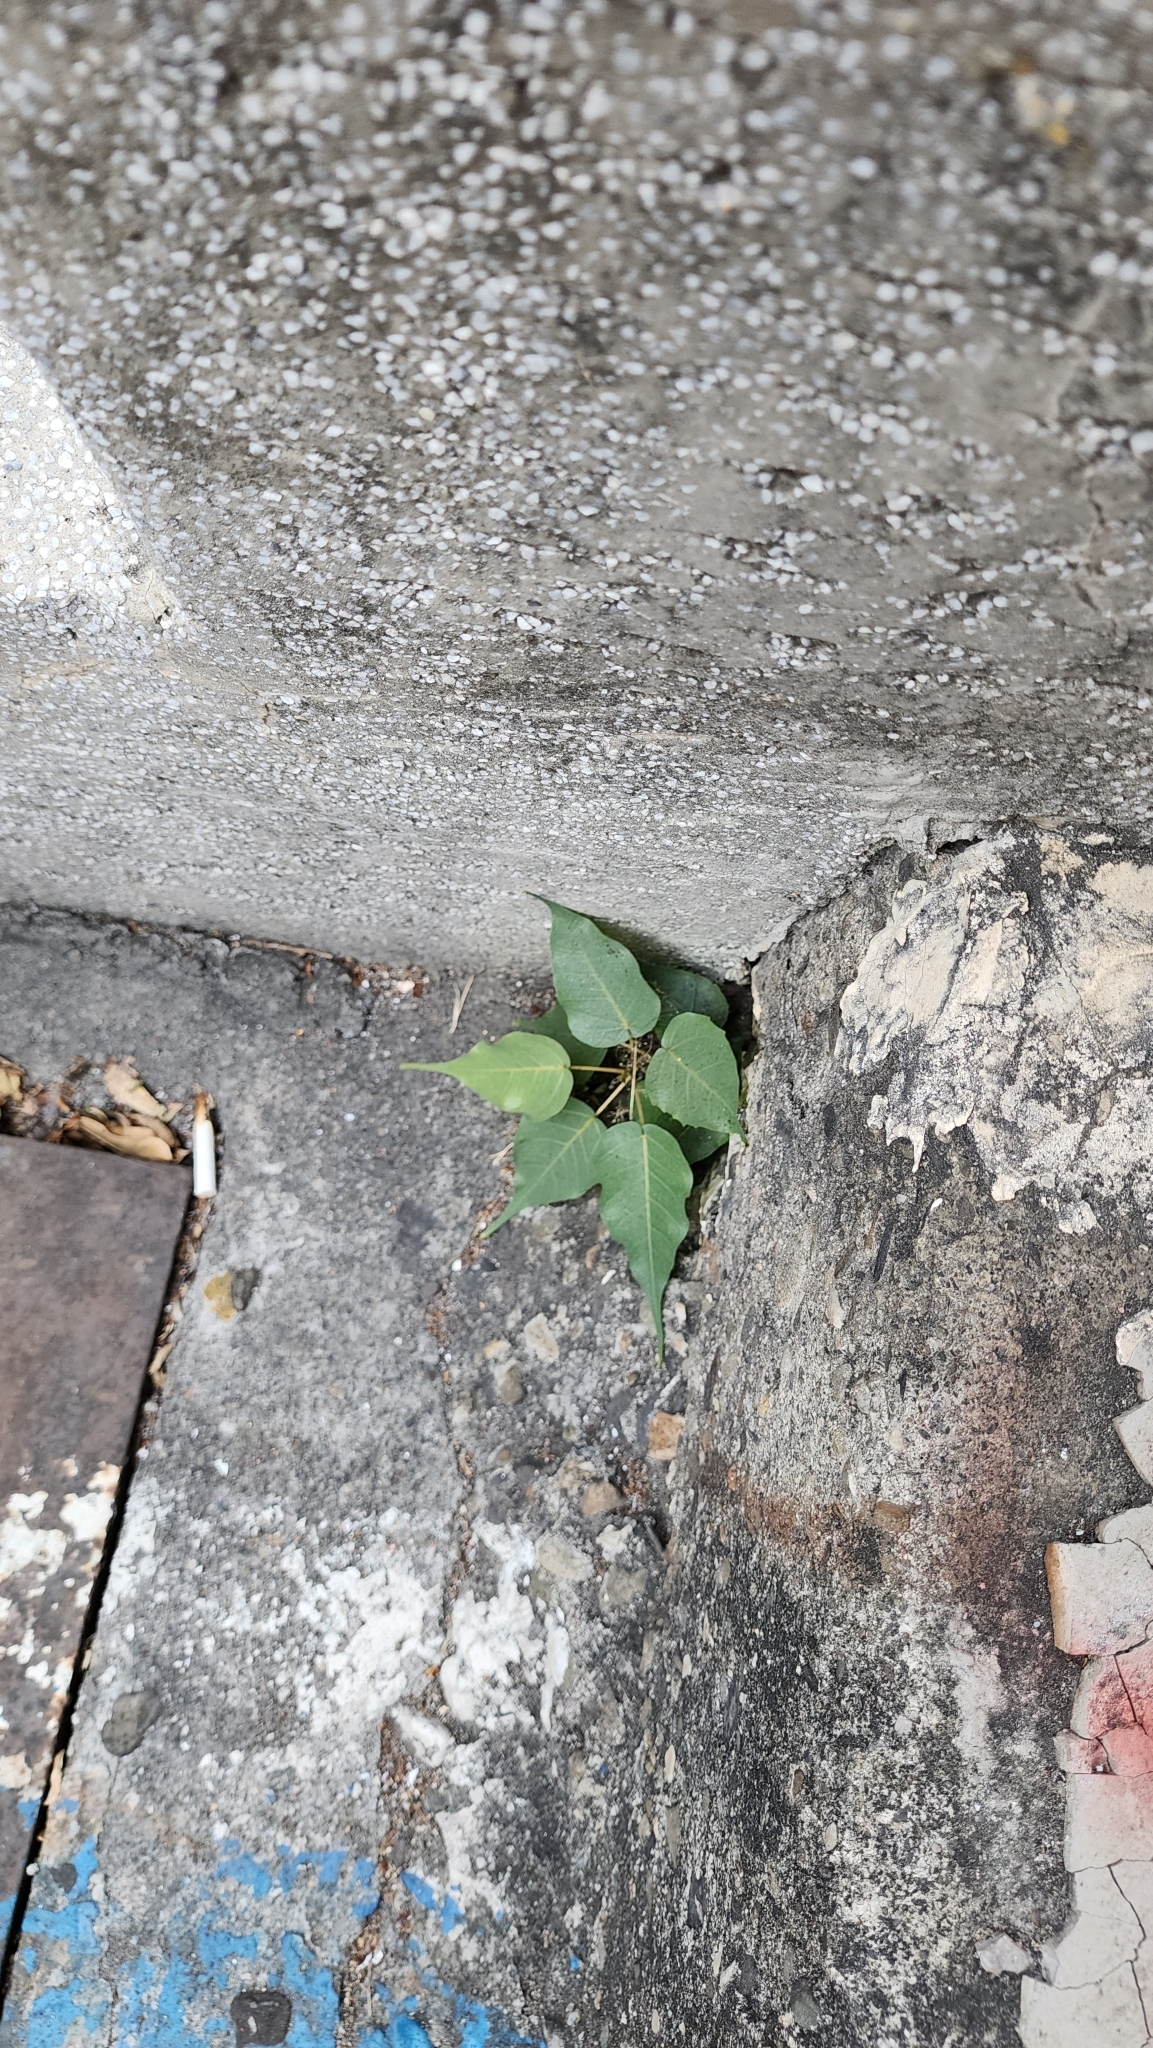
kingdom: Plantae
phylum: Tracheophyta
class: Magnoliopsida
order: Rosales
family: Moraceae
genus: Ficus
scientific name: Ficus religiosa
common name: Bodhi tree
